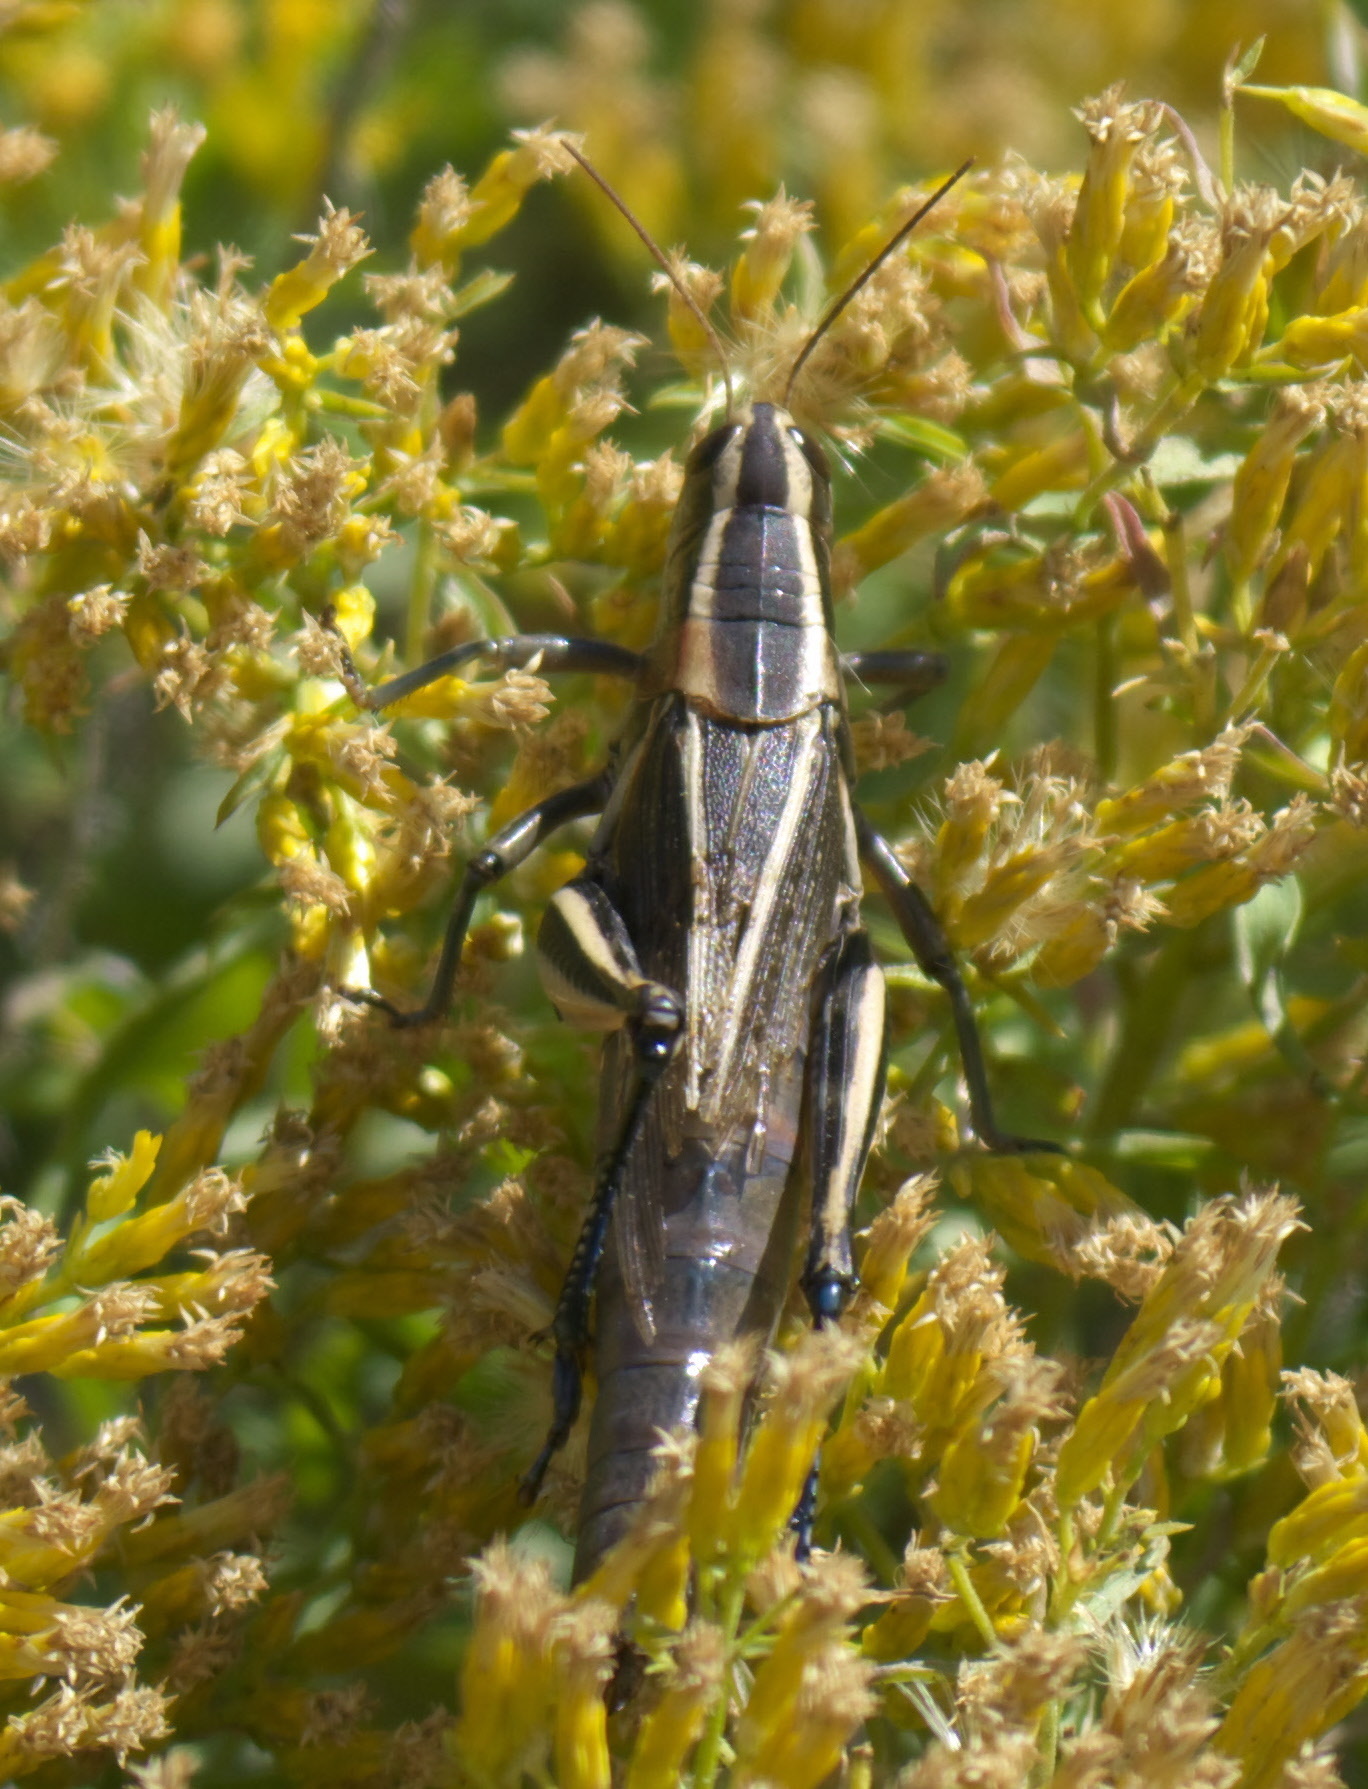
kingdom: Animalia
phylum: Arthropoda
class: Insecta
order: Orthoptera
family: Acrididae
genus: Melanoplus
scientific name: Melanoplus bivittatus
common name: Two-striped grasshopper
